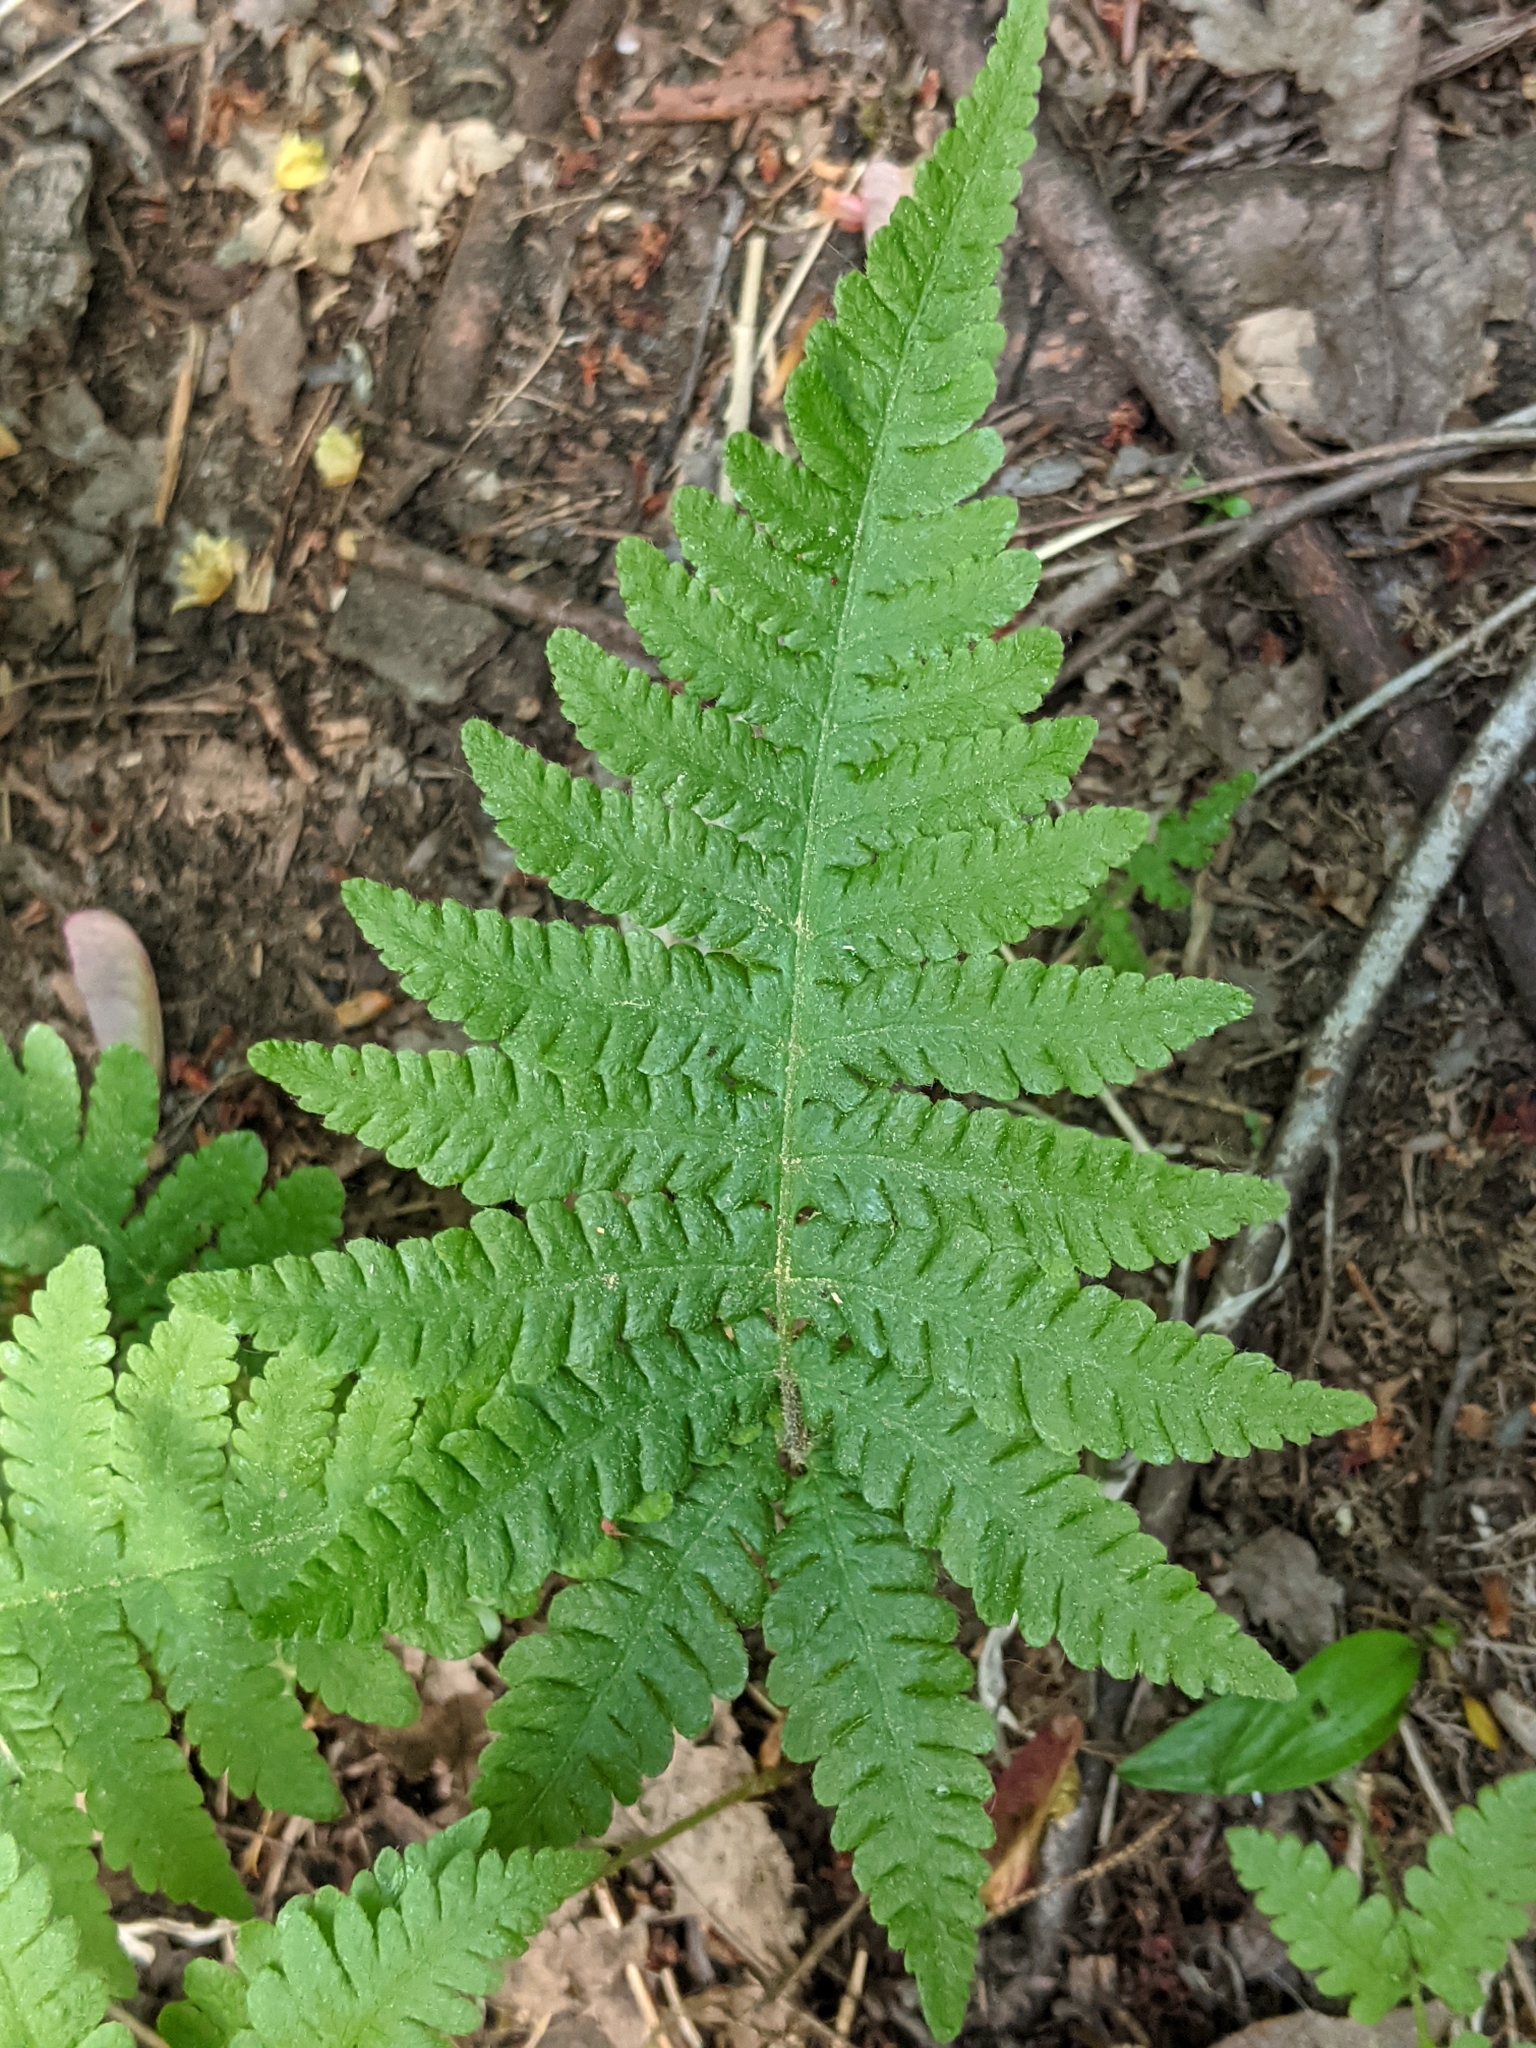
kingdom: Plantae
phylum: Tracheophyta
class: Polypodiopsida
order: Polypodiales
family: Thelypteridaceae
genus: Phegopteris
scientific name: Phegopteris connectilis
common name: Beech fern
